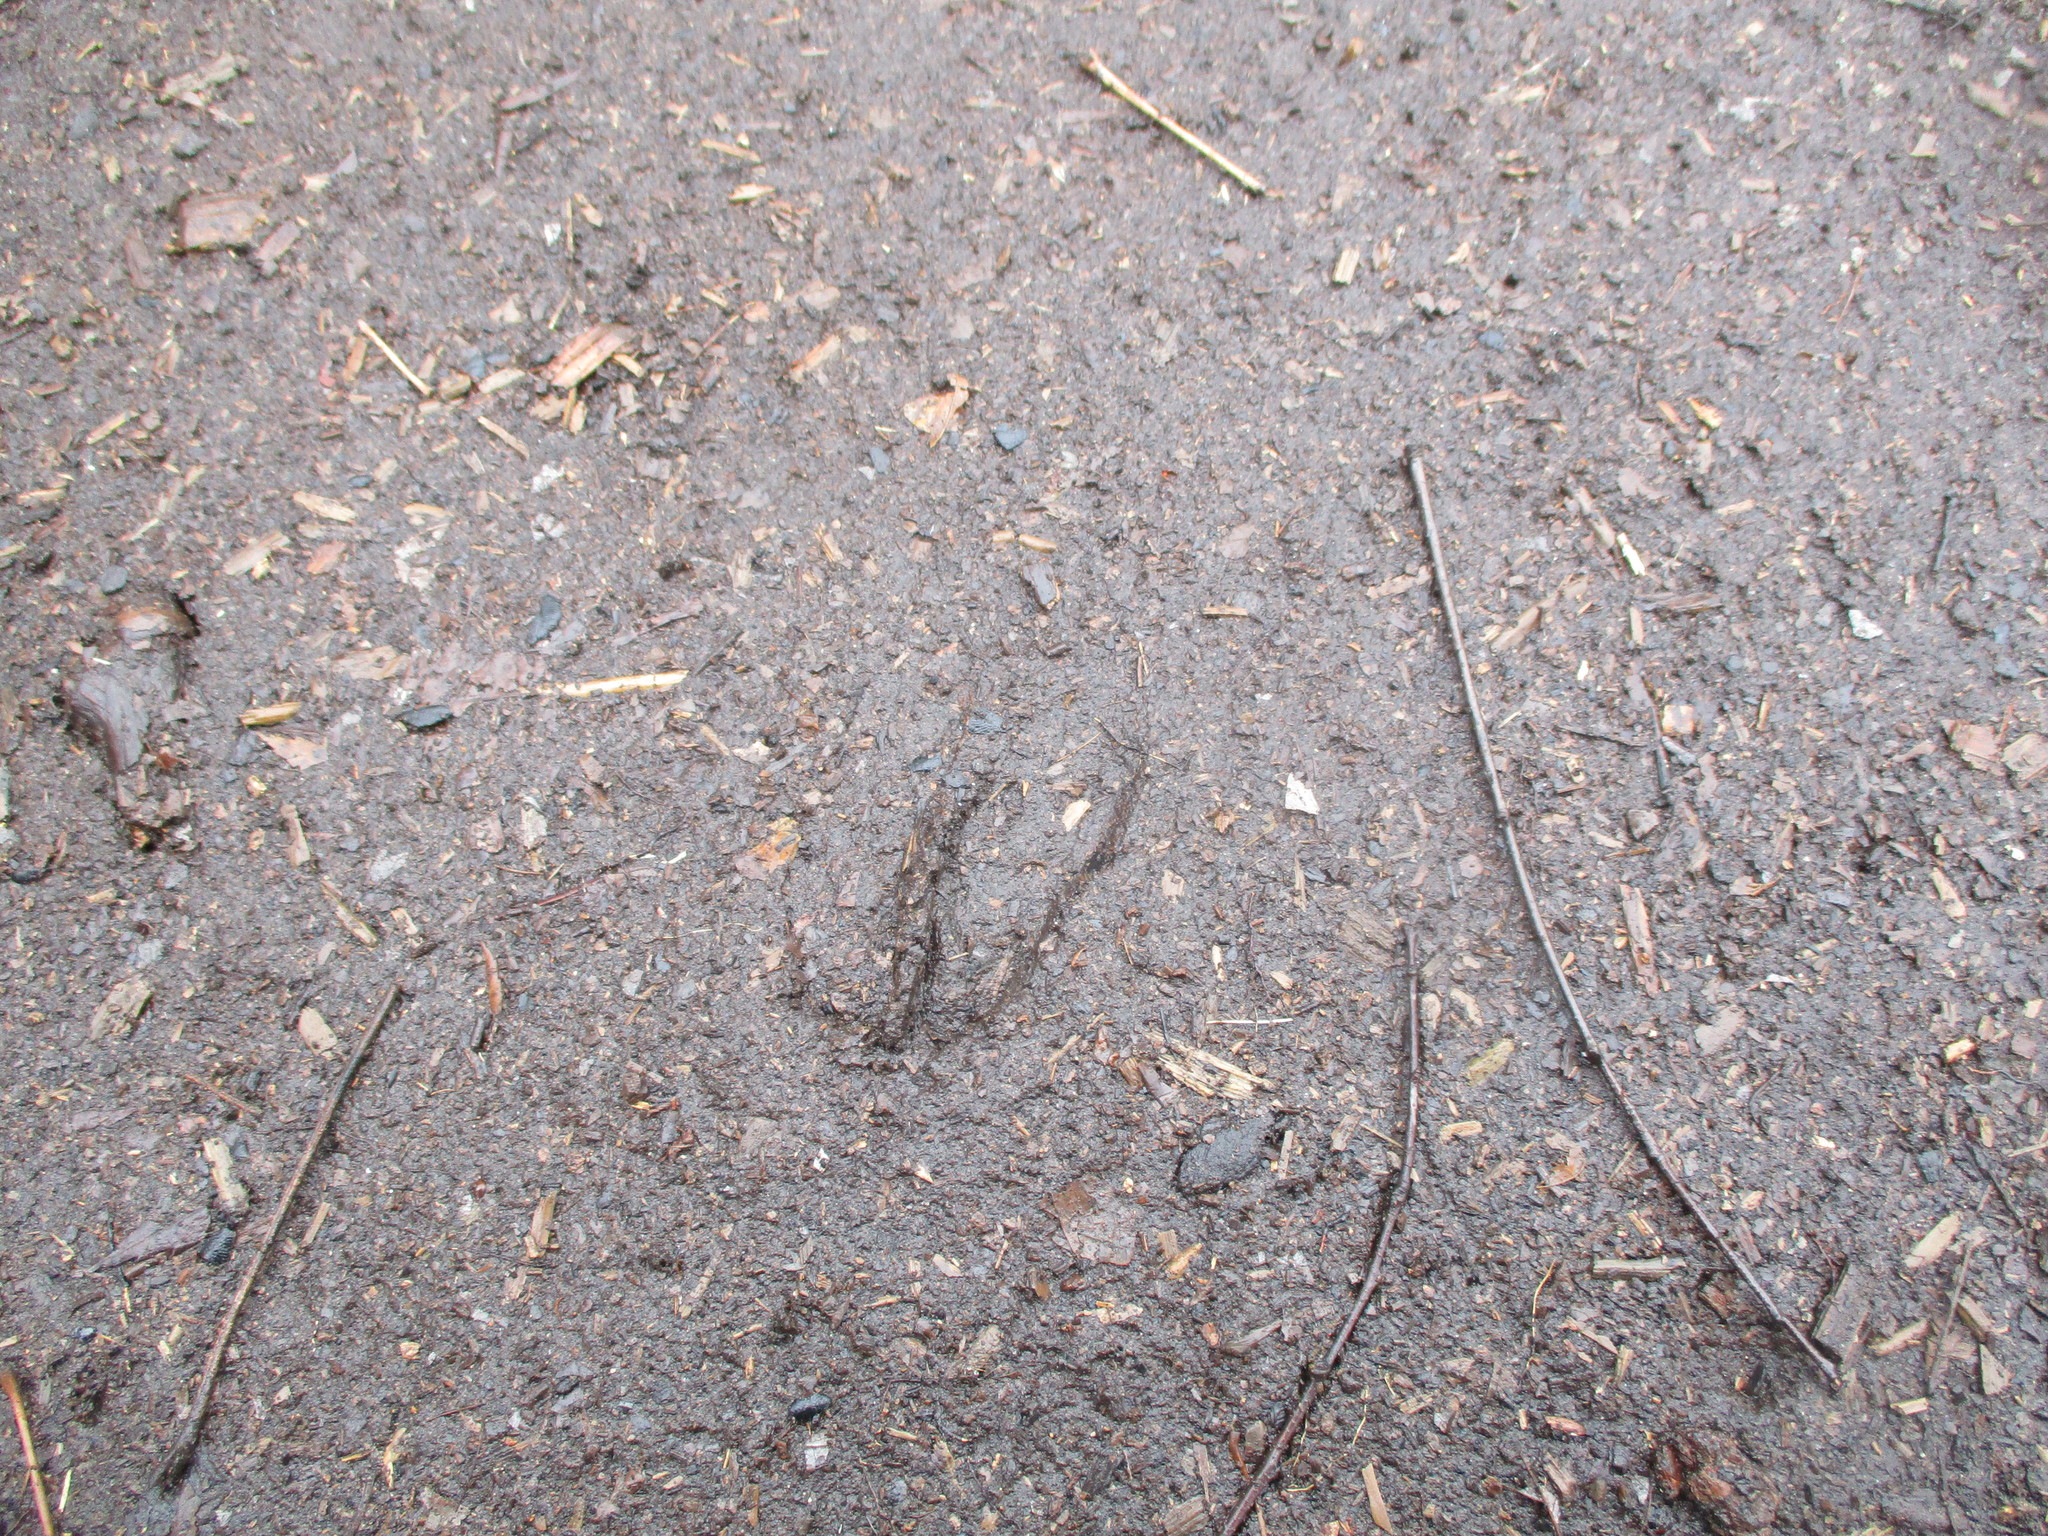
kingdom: Animalia
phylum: Chordata
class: Mammalia
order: Artiodactyla
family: Cervidae
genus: Odocoileus
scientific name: Odocoileus virginianus
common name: White-tailed deer
